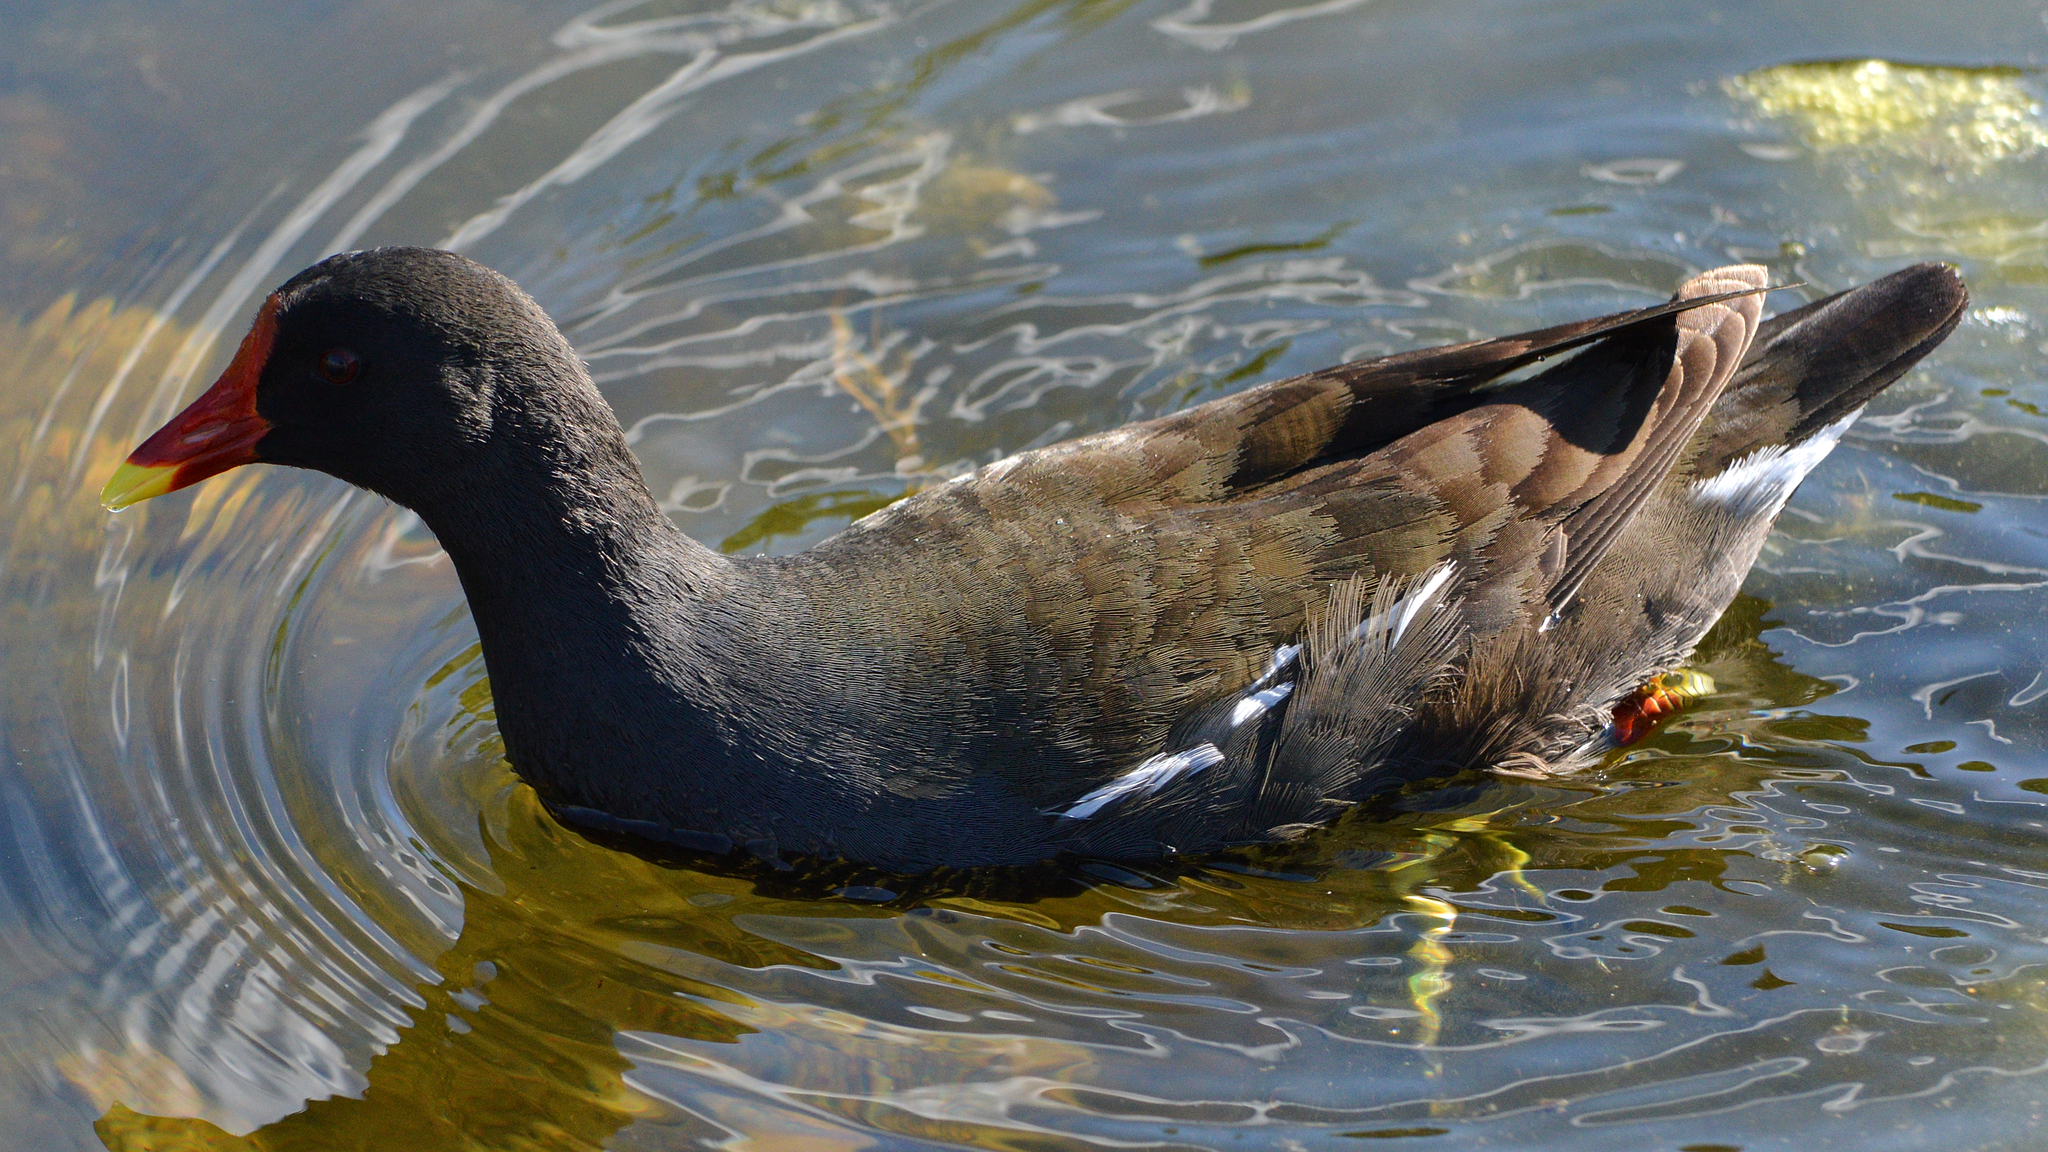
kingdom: Animalia
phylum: Chordata
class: Aves
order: Gruiformes
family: Rallidae
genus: Gallinula
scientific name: Gallinula chloropus
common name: Common moorhen
